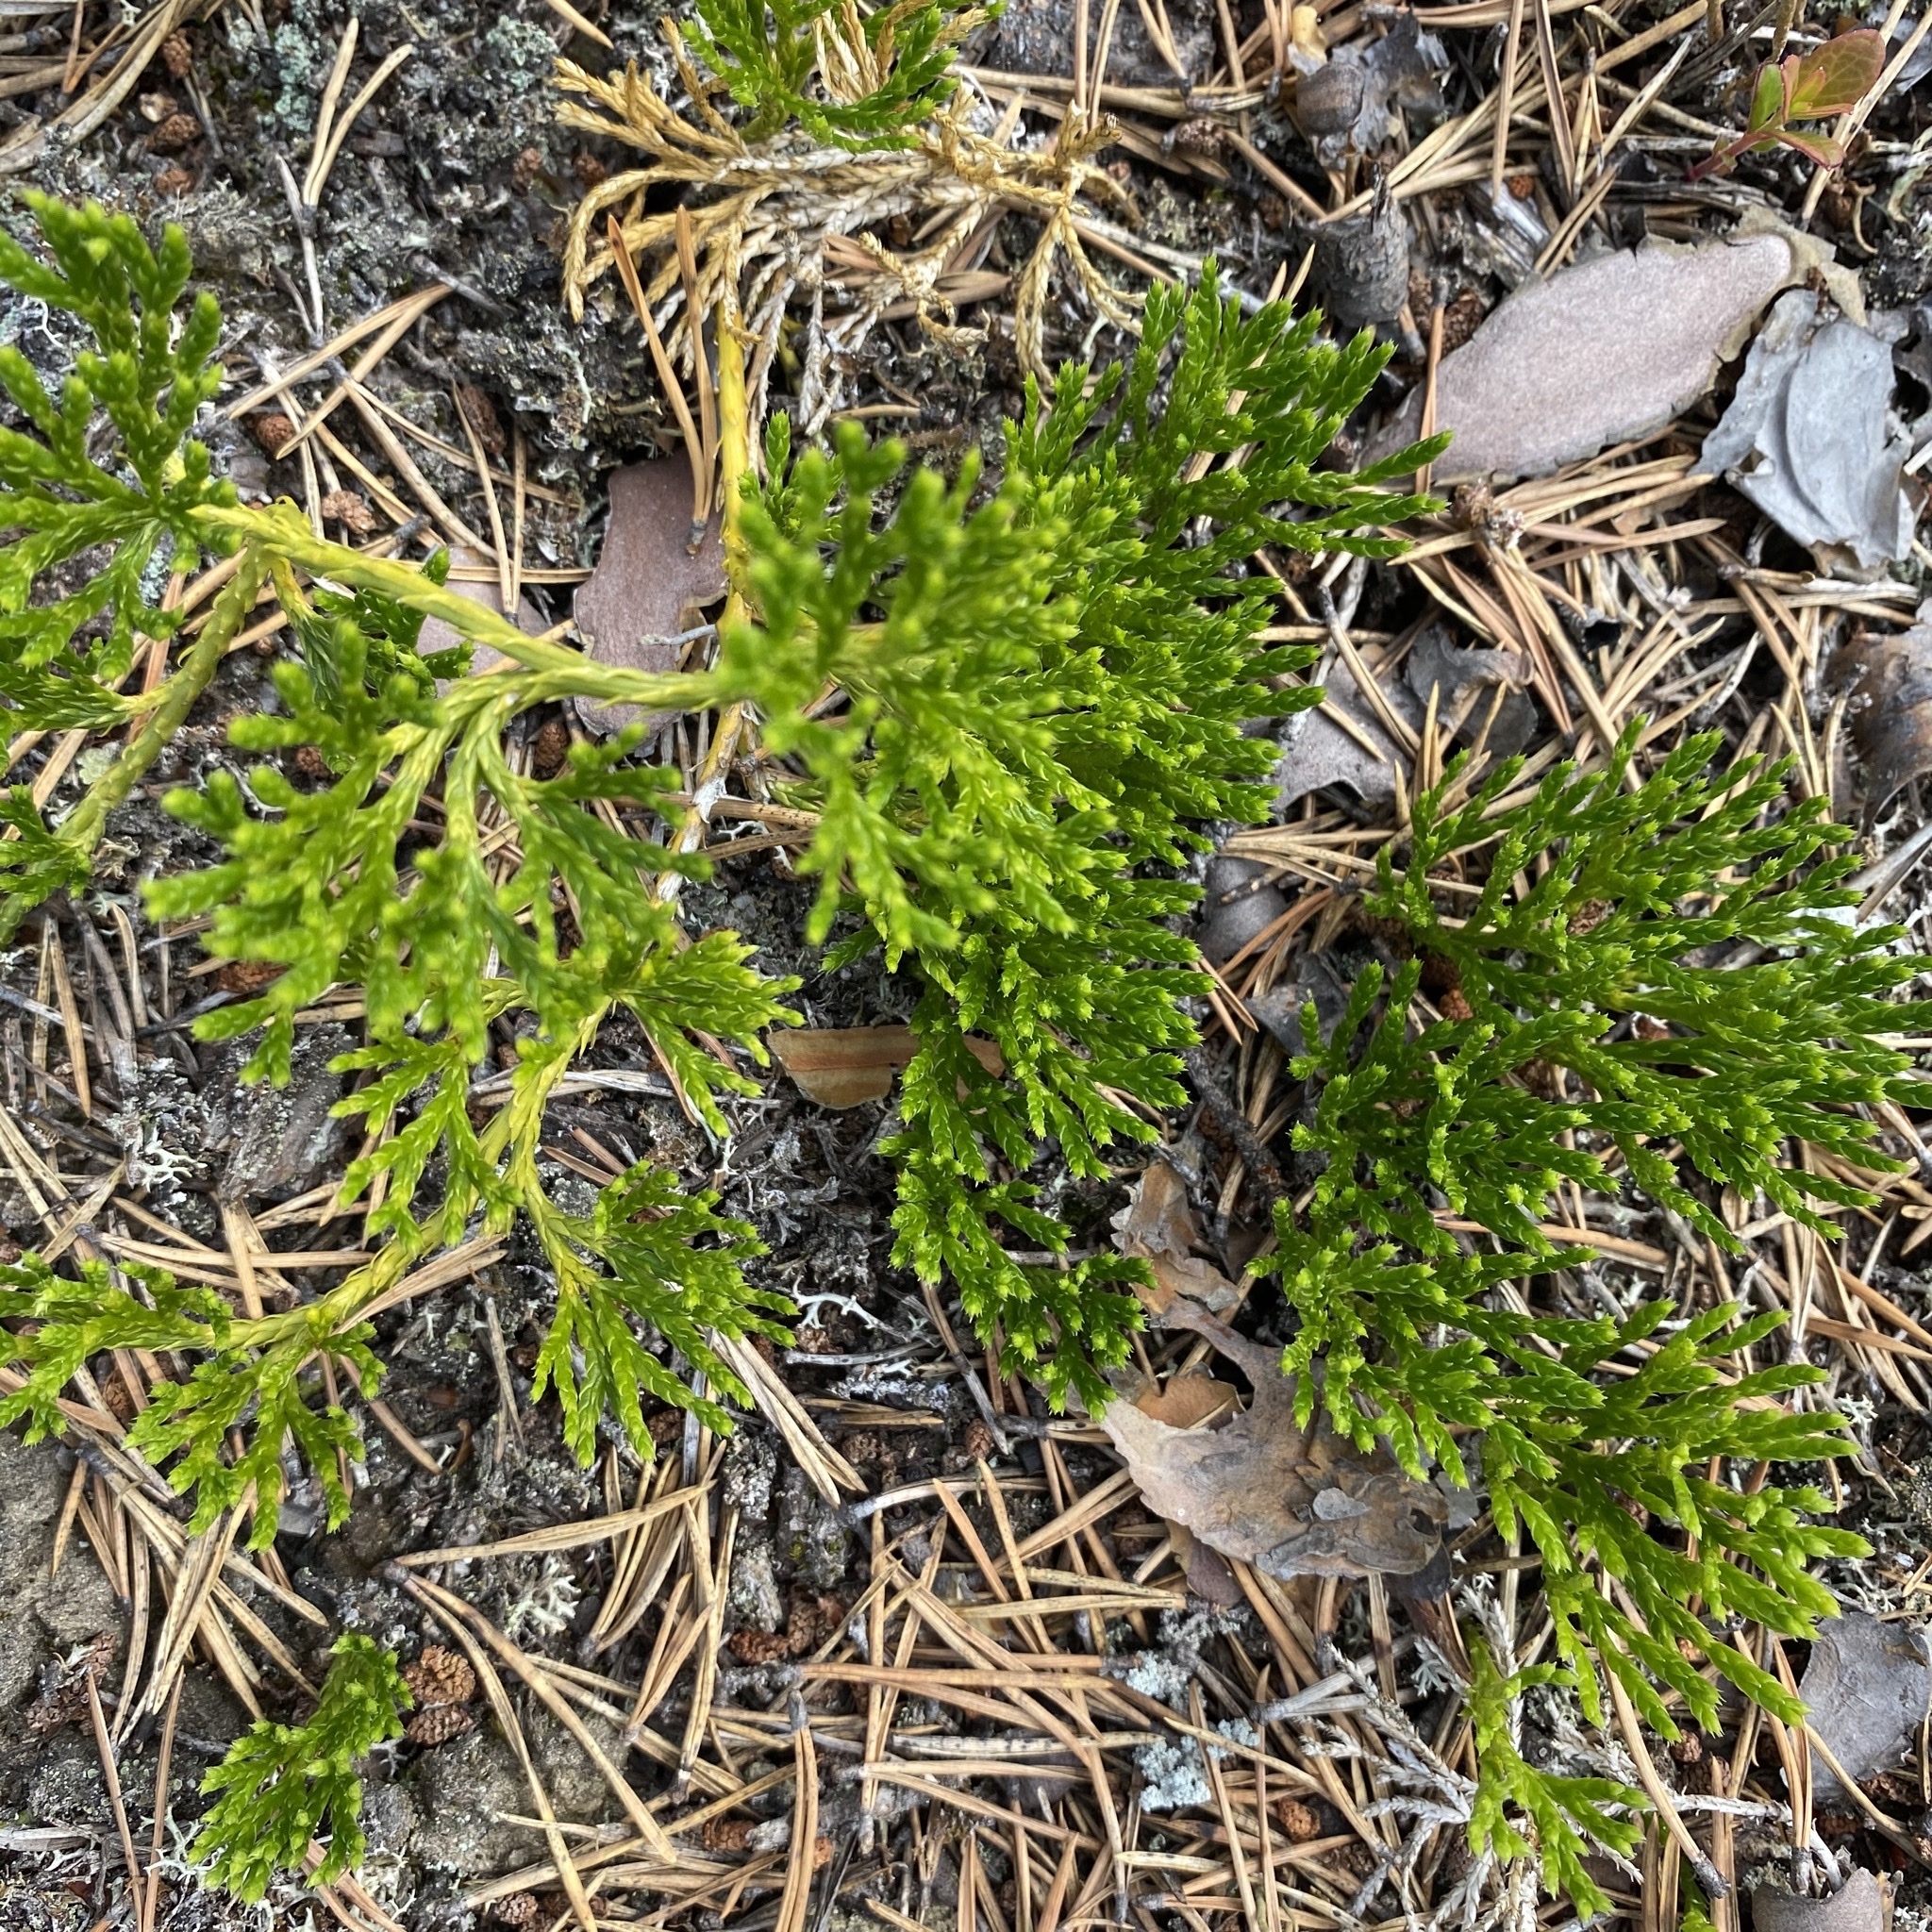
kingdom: Plantae
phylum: Tracheophyta
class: Lycopodiopsida
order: Lycopodiales
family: Lycopodiaceae
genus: Diphasiastrum
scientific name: Diphasiastrum complanatum
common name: Northern running-pine
